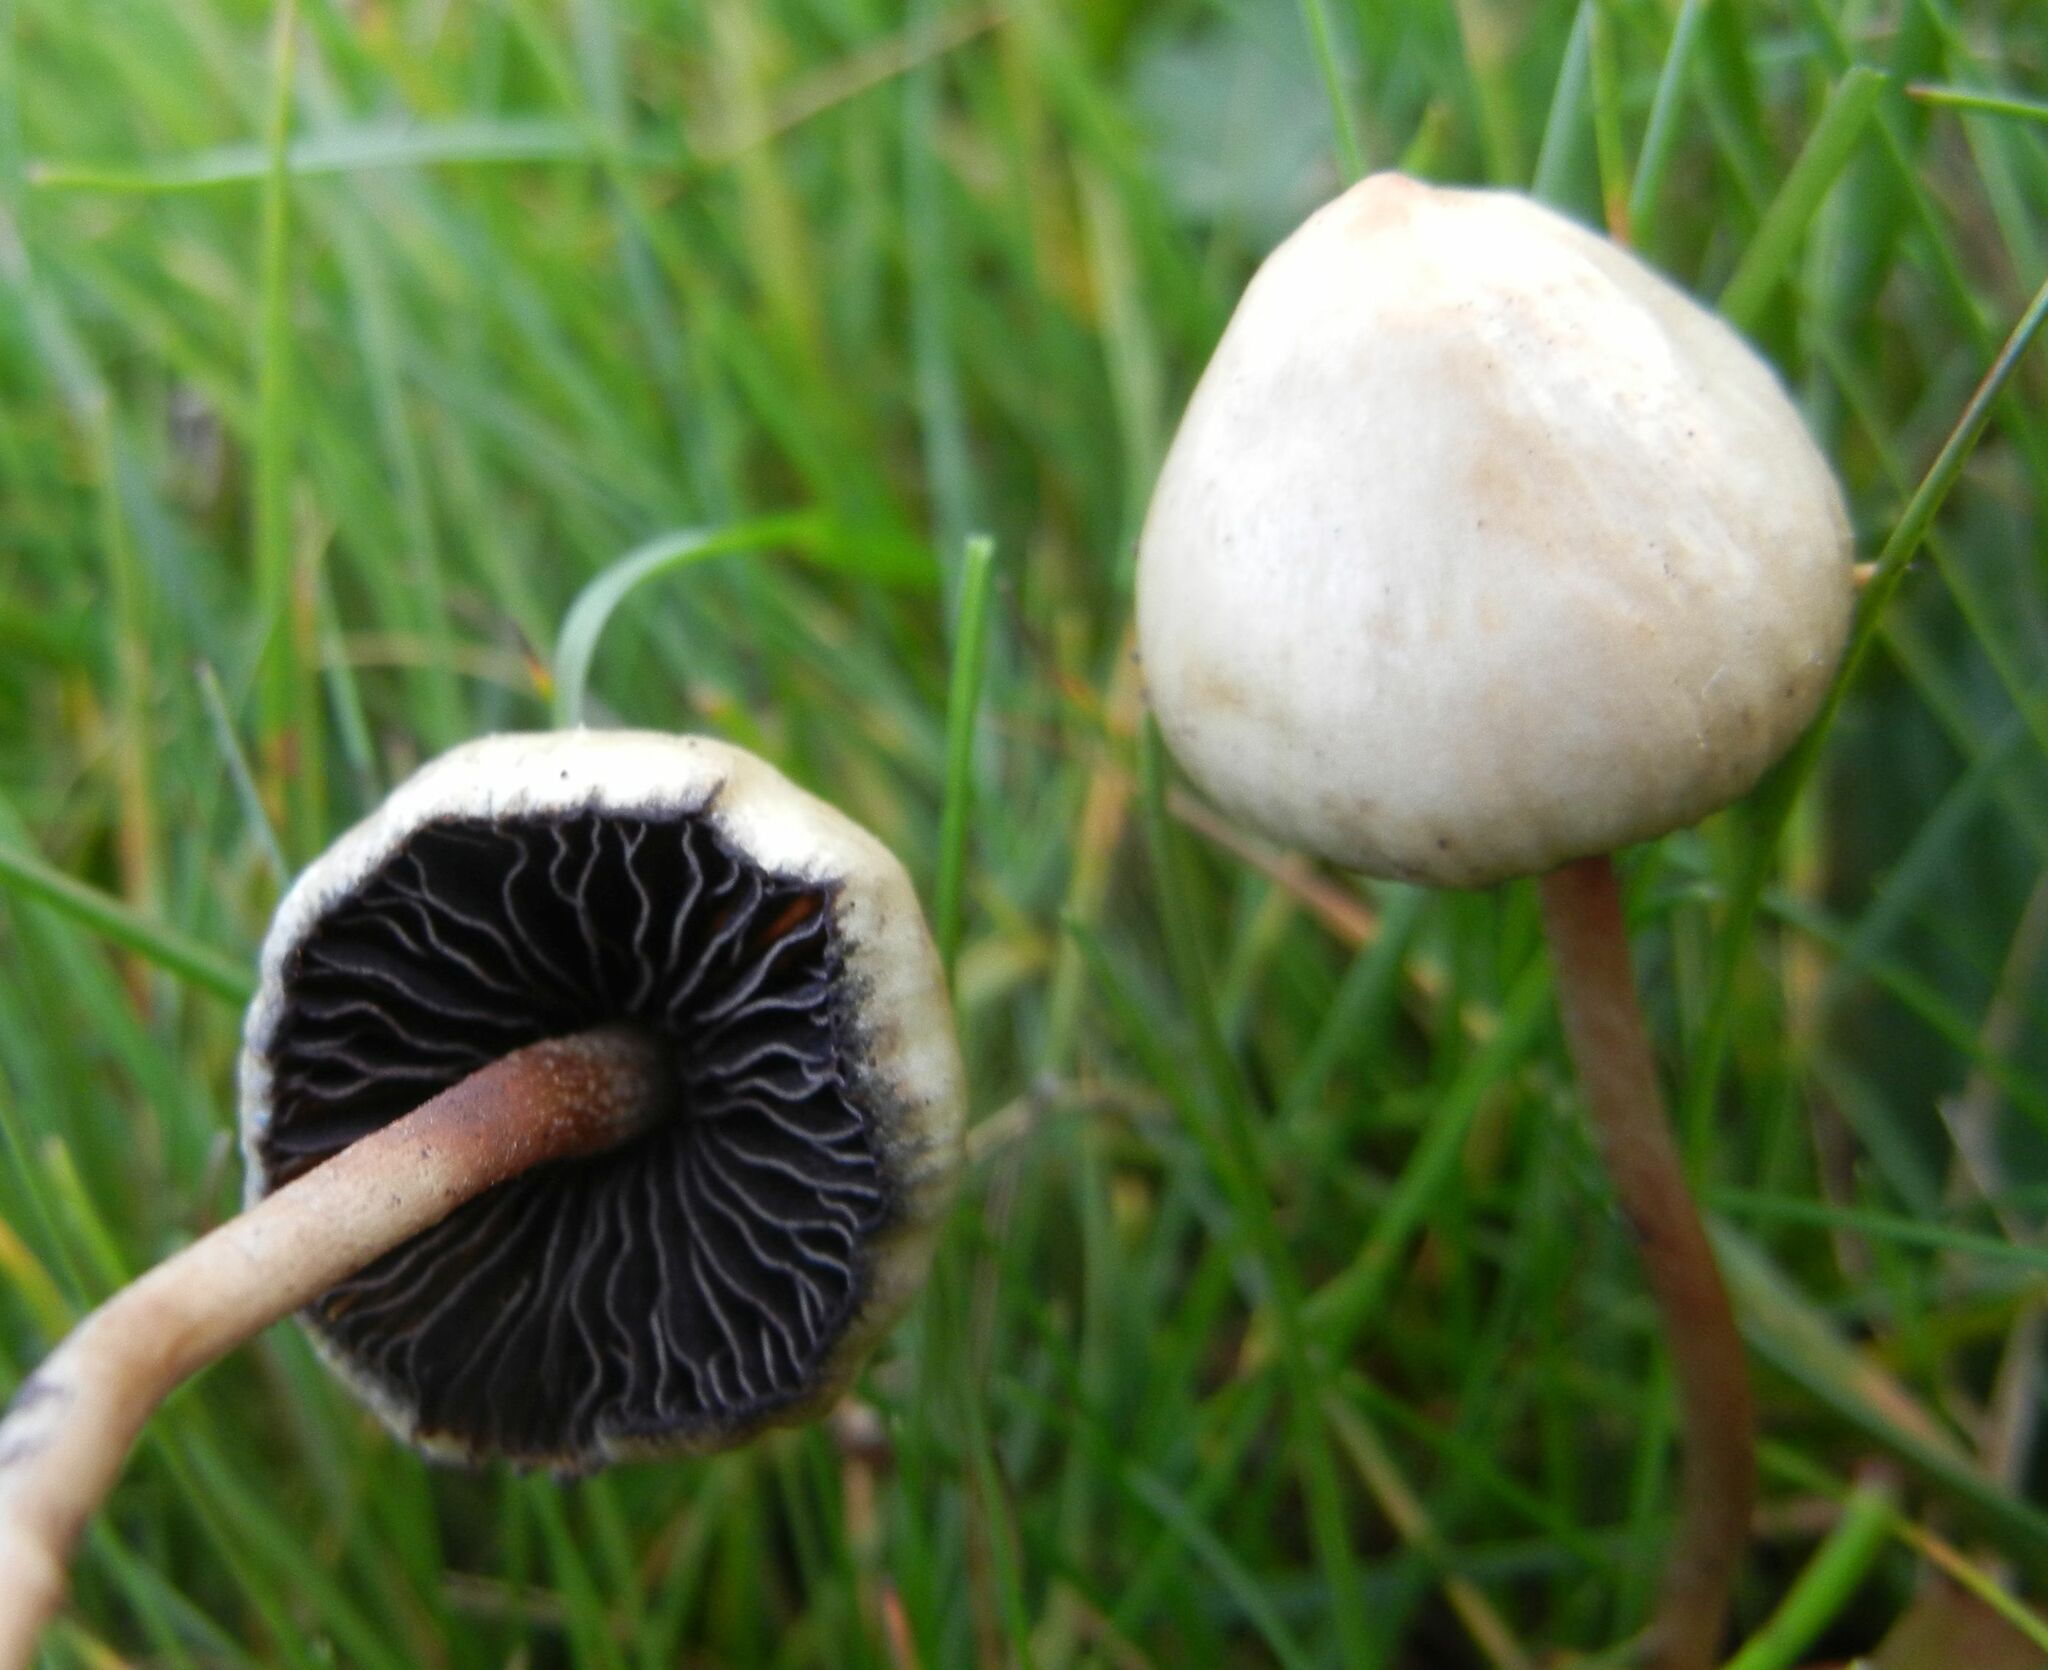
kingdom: Fungi
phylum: Basidiomycota
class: Agaricomycetes
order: Agaricales
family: Hymenogastraceae
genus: Psilocybe
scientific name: Psilocybe semilanceata
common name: Liberty cap
